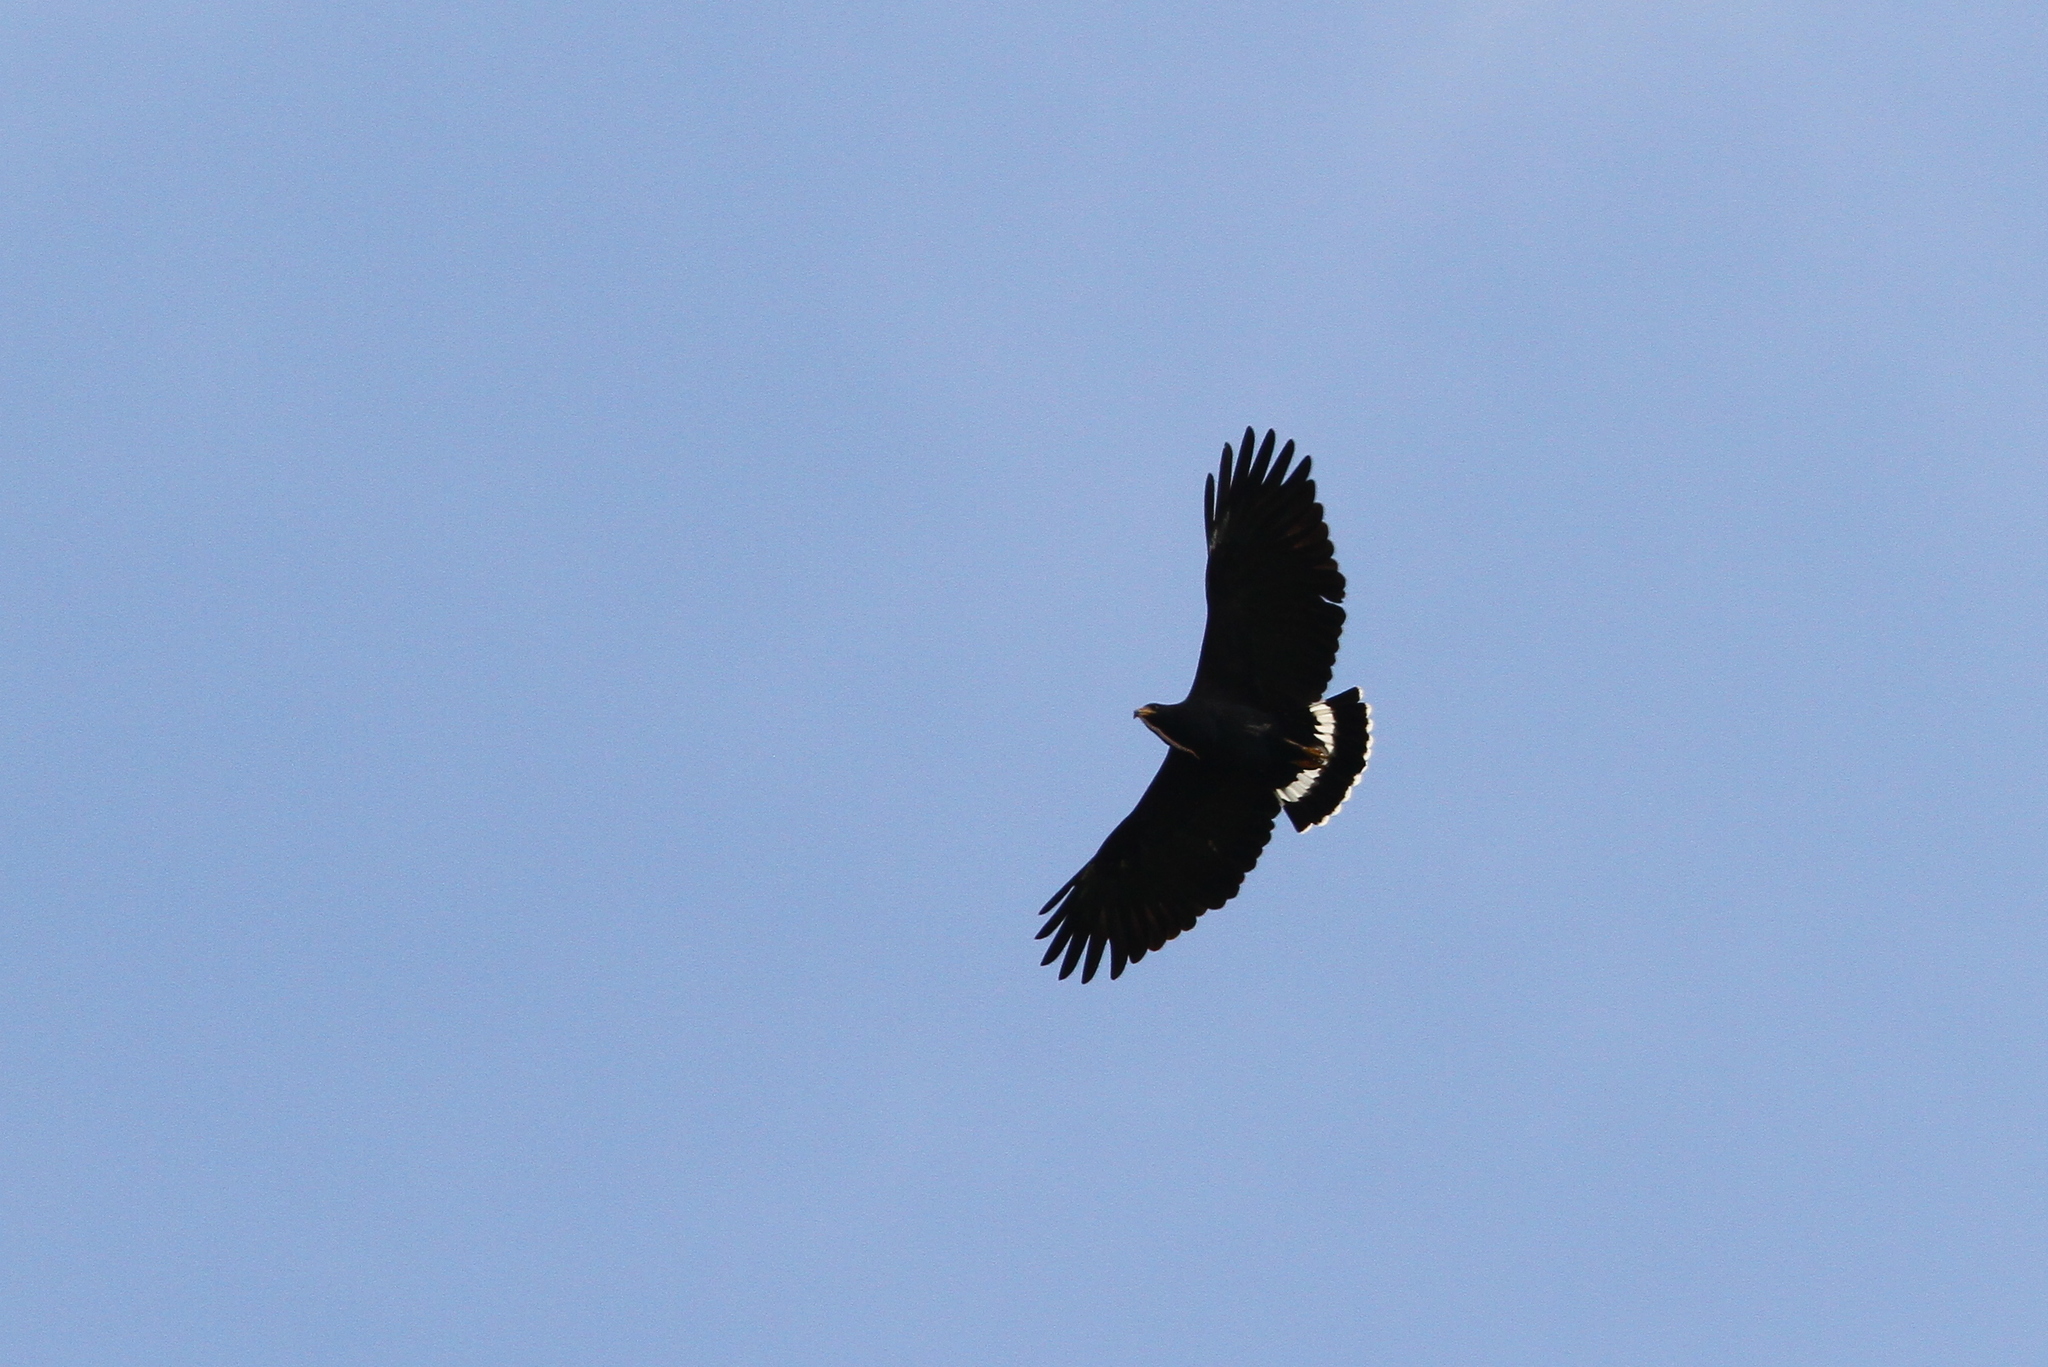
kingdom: Animalia
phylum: Chordata
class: Aves
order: Accipitriformes
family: Accipitridae
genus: Buteogallus
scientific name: Buteogallus anthracinus
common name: Common black hawk
